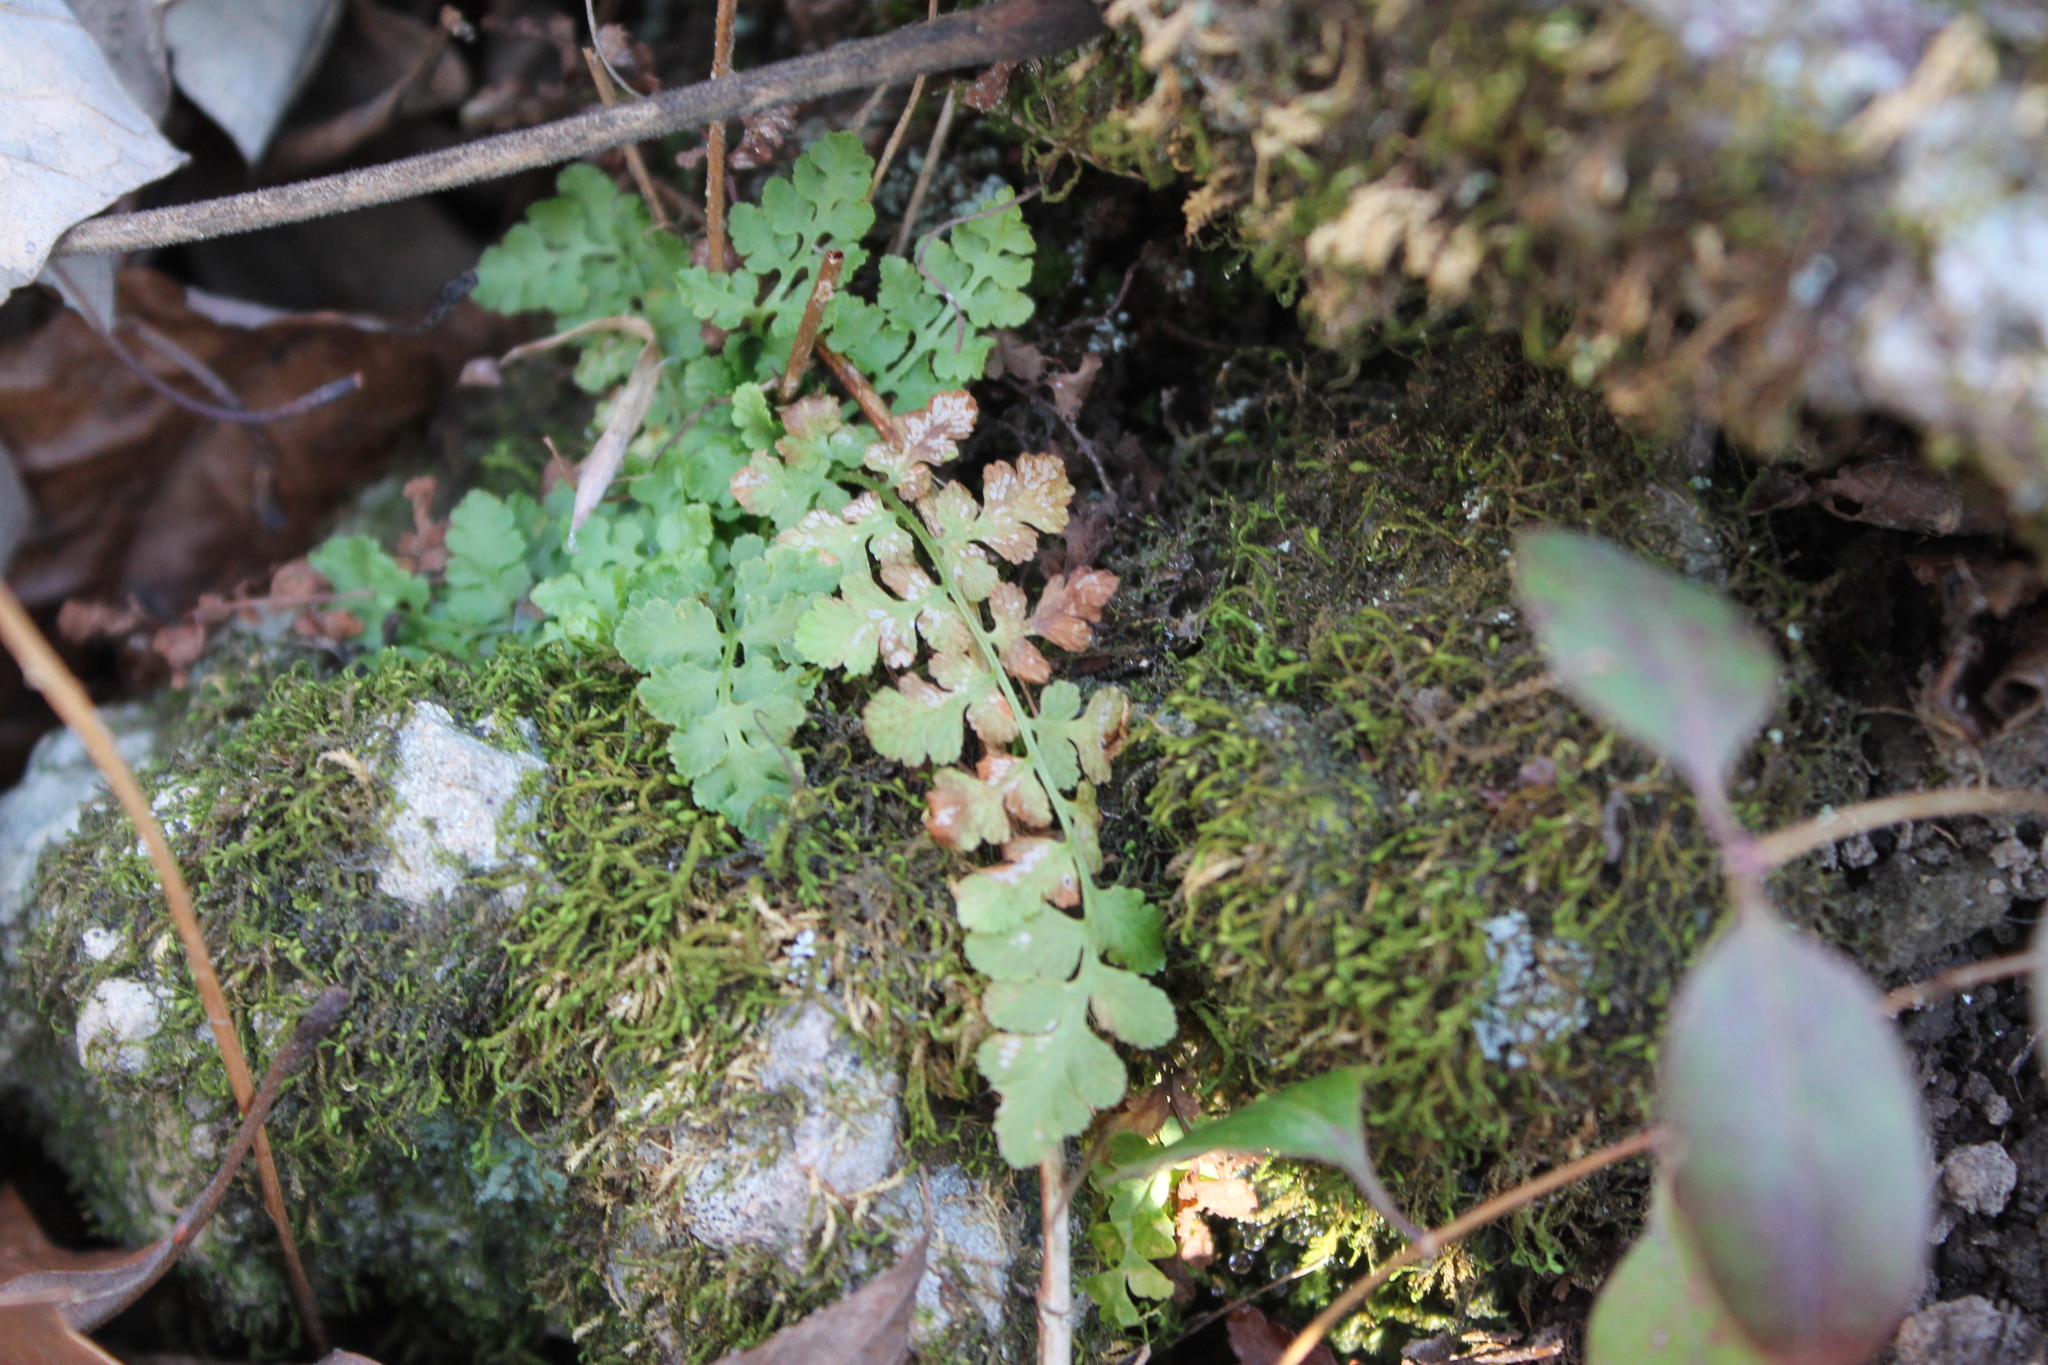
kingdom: Plantae
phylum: Tracheophyta
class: Polypodiopsida
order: Polypodiales
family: Woodsiaceae
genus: Physematium
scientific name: Physematium obtusum
